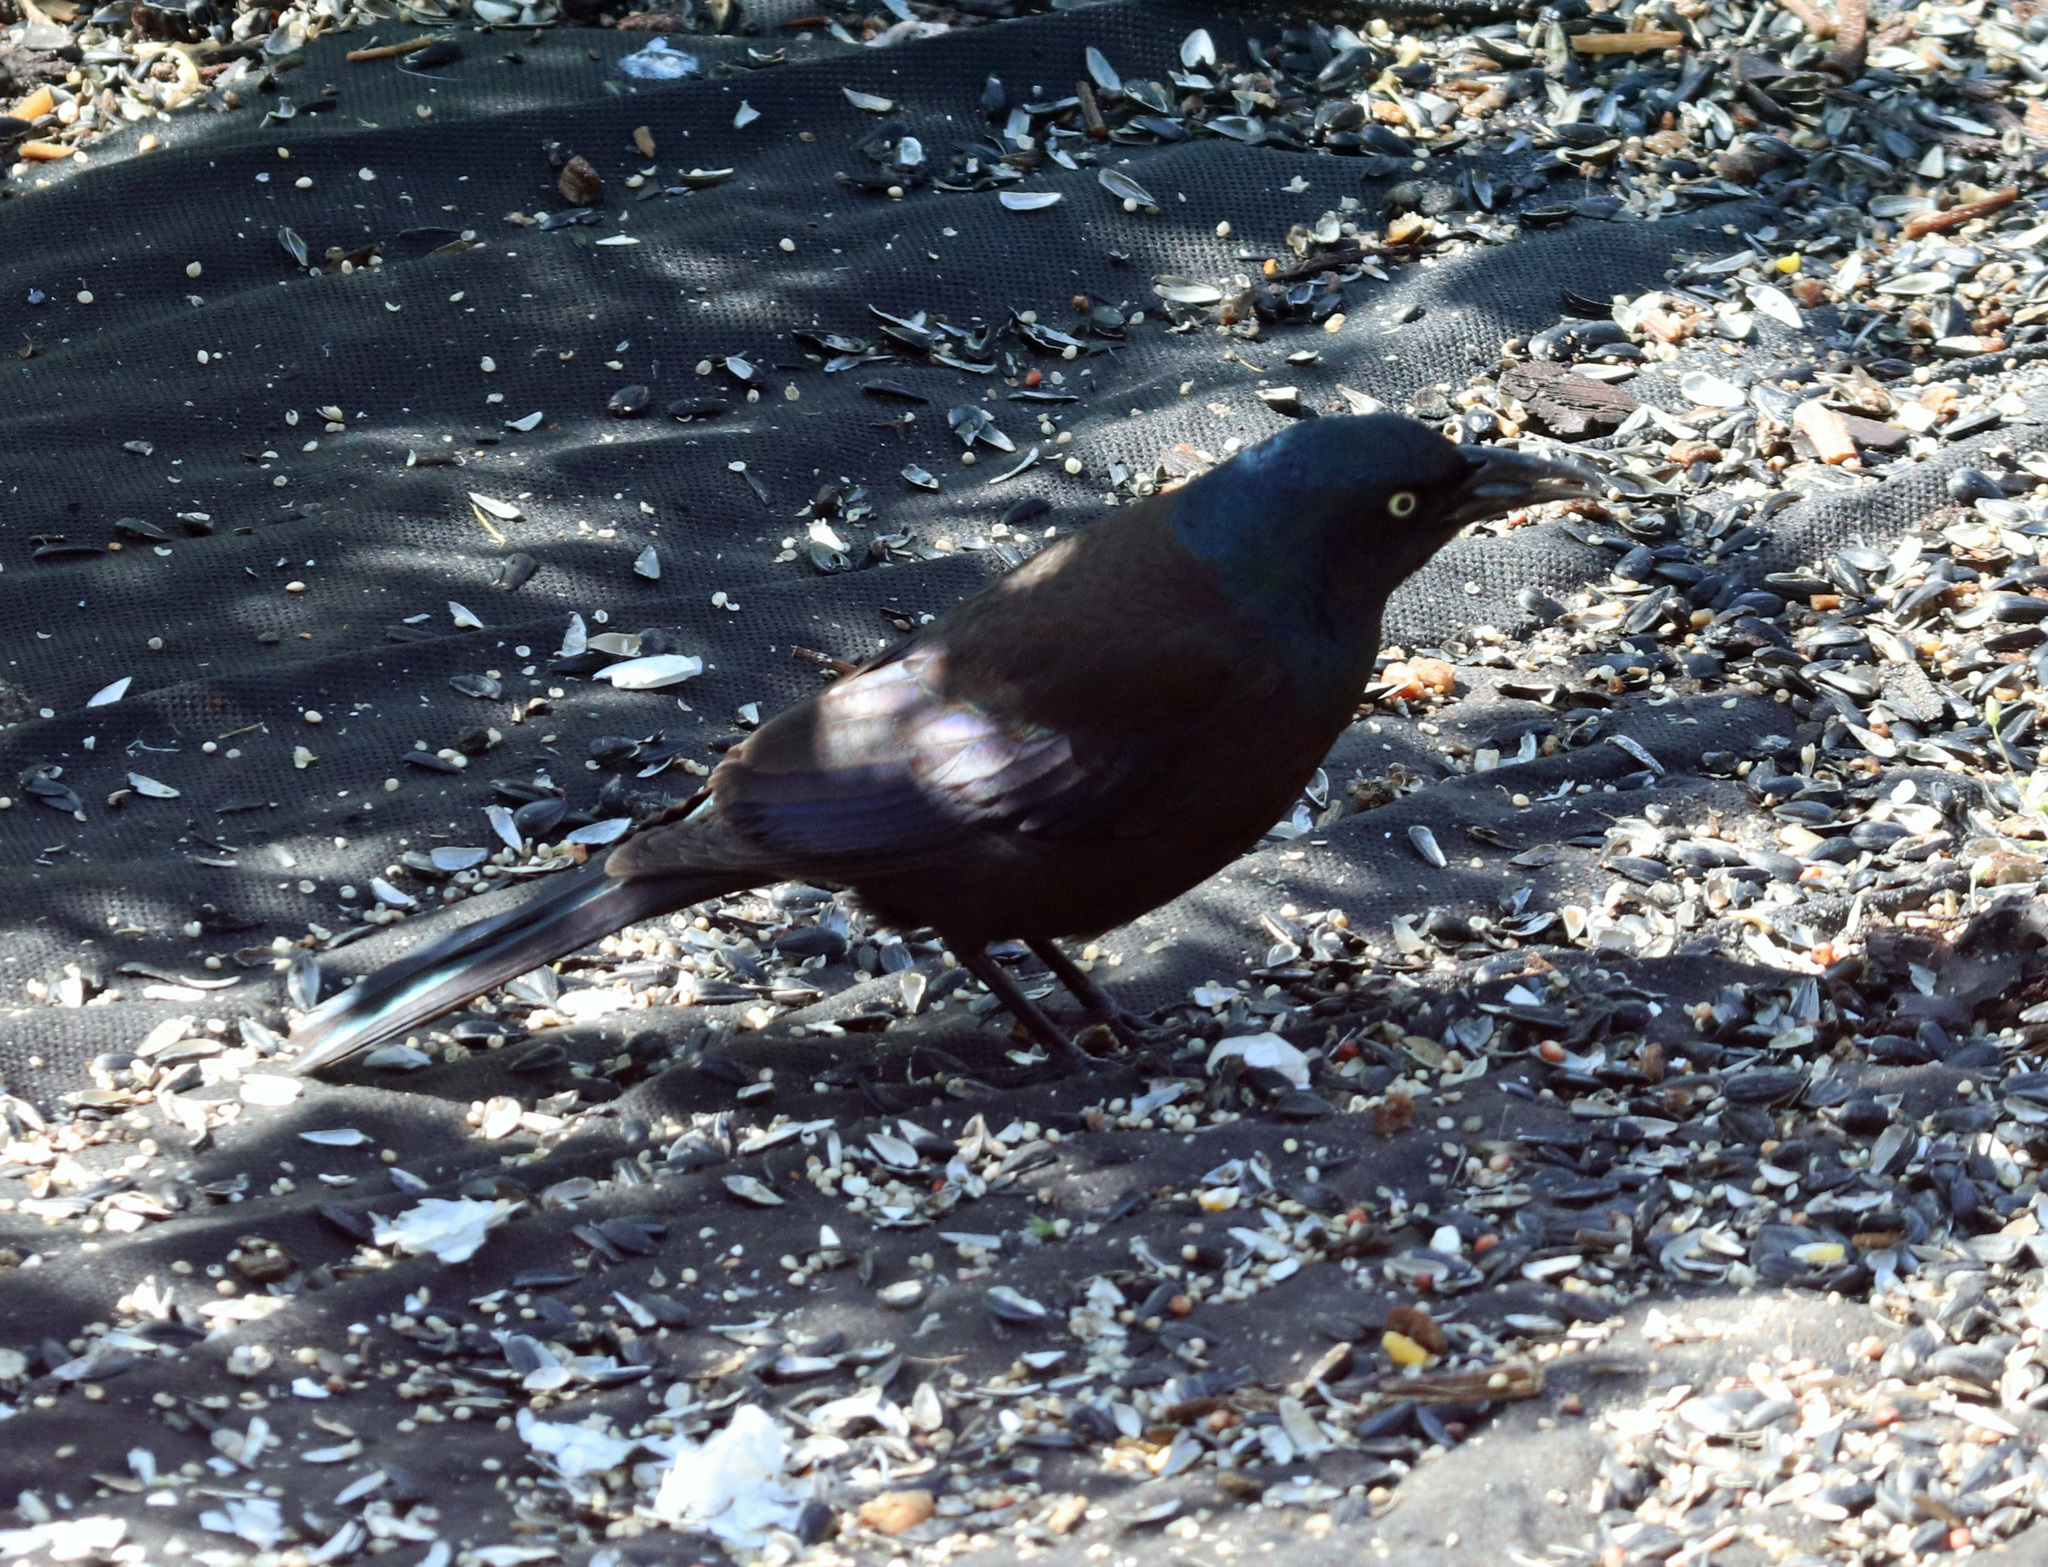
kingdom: Animalia
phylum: Chordata
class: Aves
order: Passeriformes
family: Icteridae
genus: Quiscalus
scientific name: Quiscalus quiscula
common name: Common grackle
